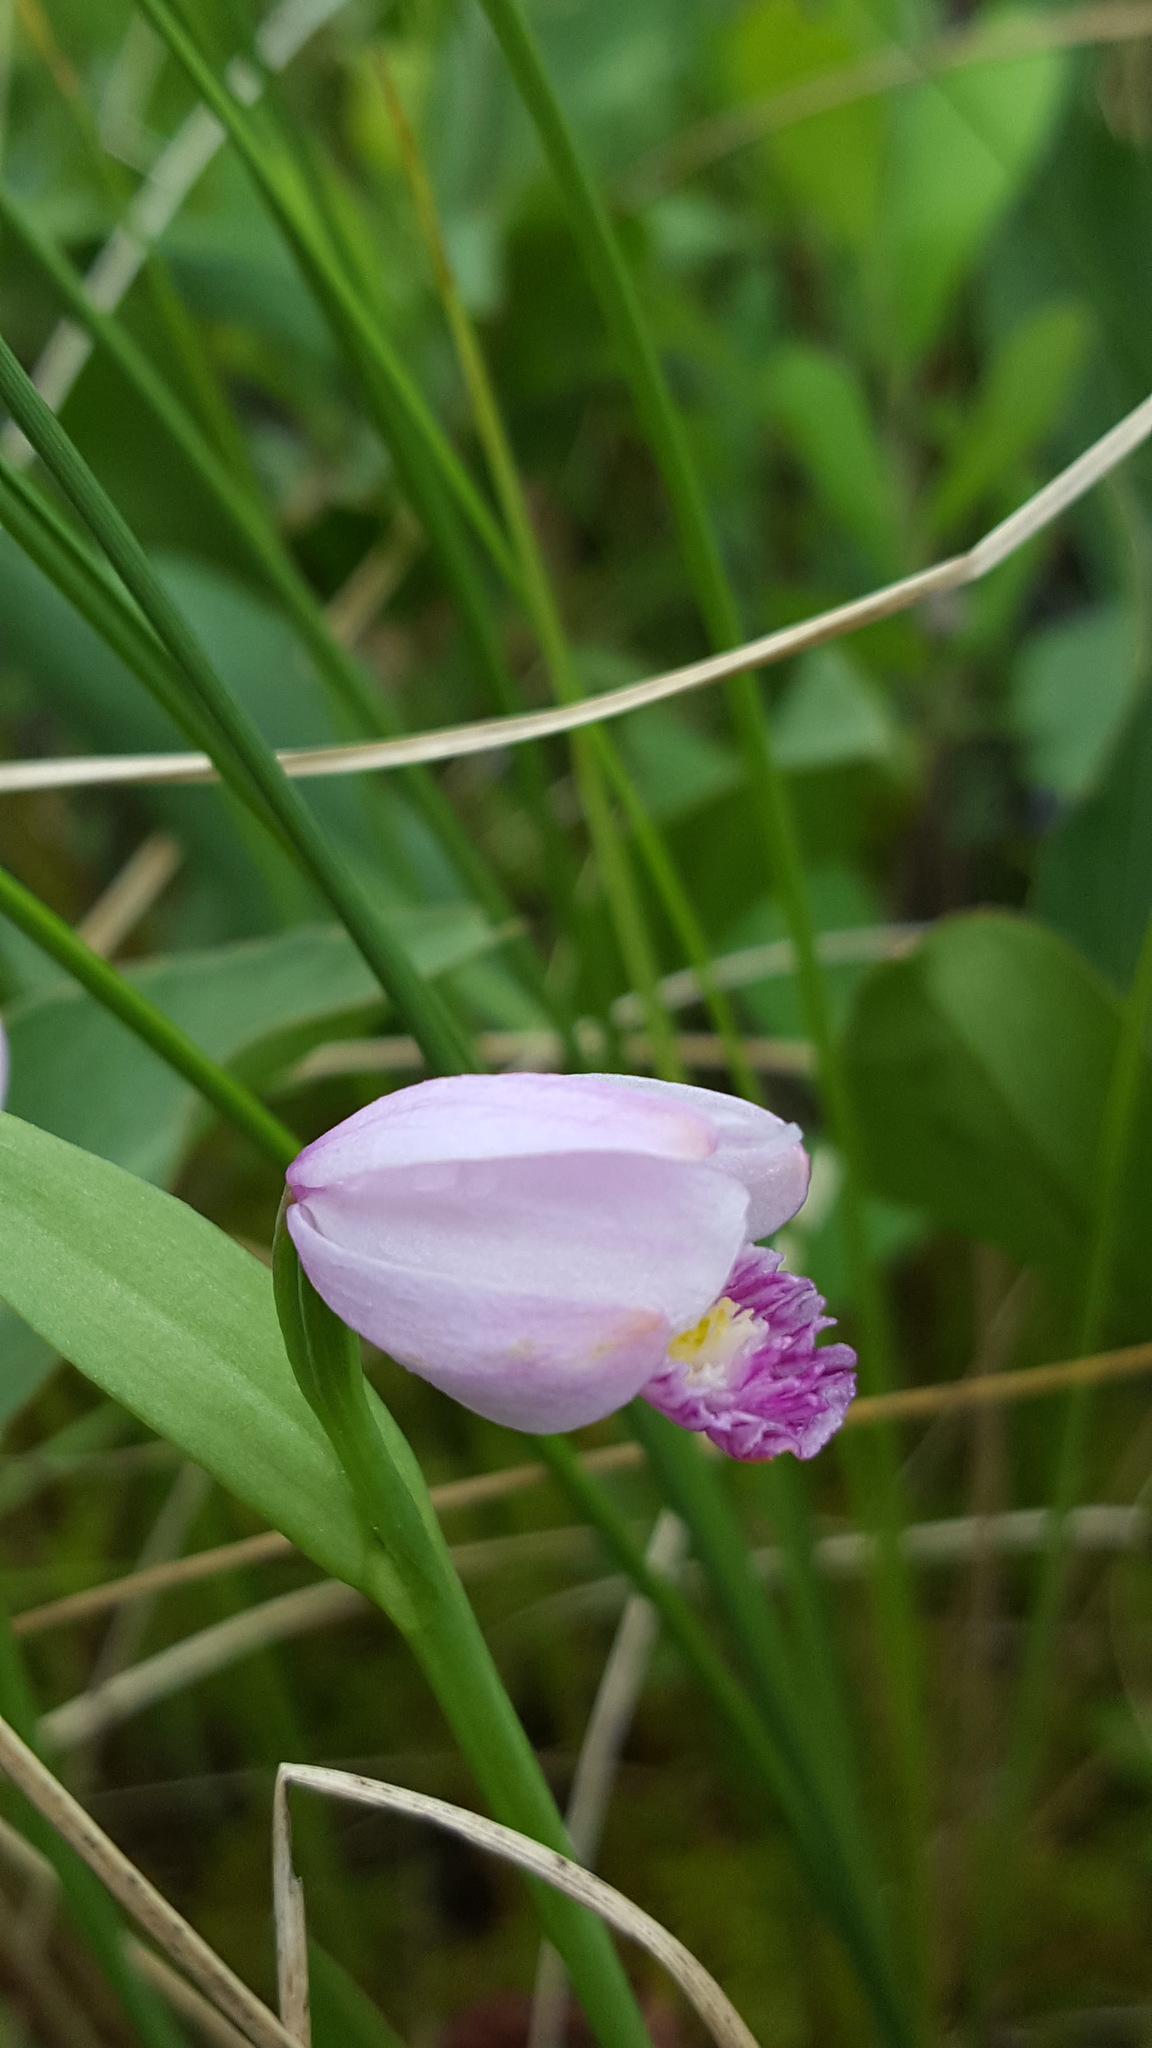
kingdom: Plantae
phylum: Tracheophyta
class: Liliopsida
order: Asparagales
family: Orchidaceae
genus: Pogonia
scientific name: Pogonia ophioglossoides
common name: Rose pogonia
